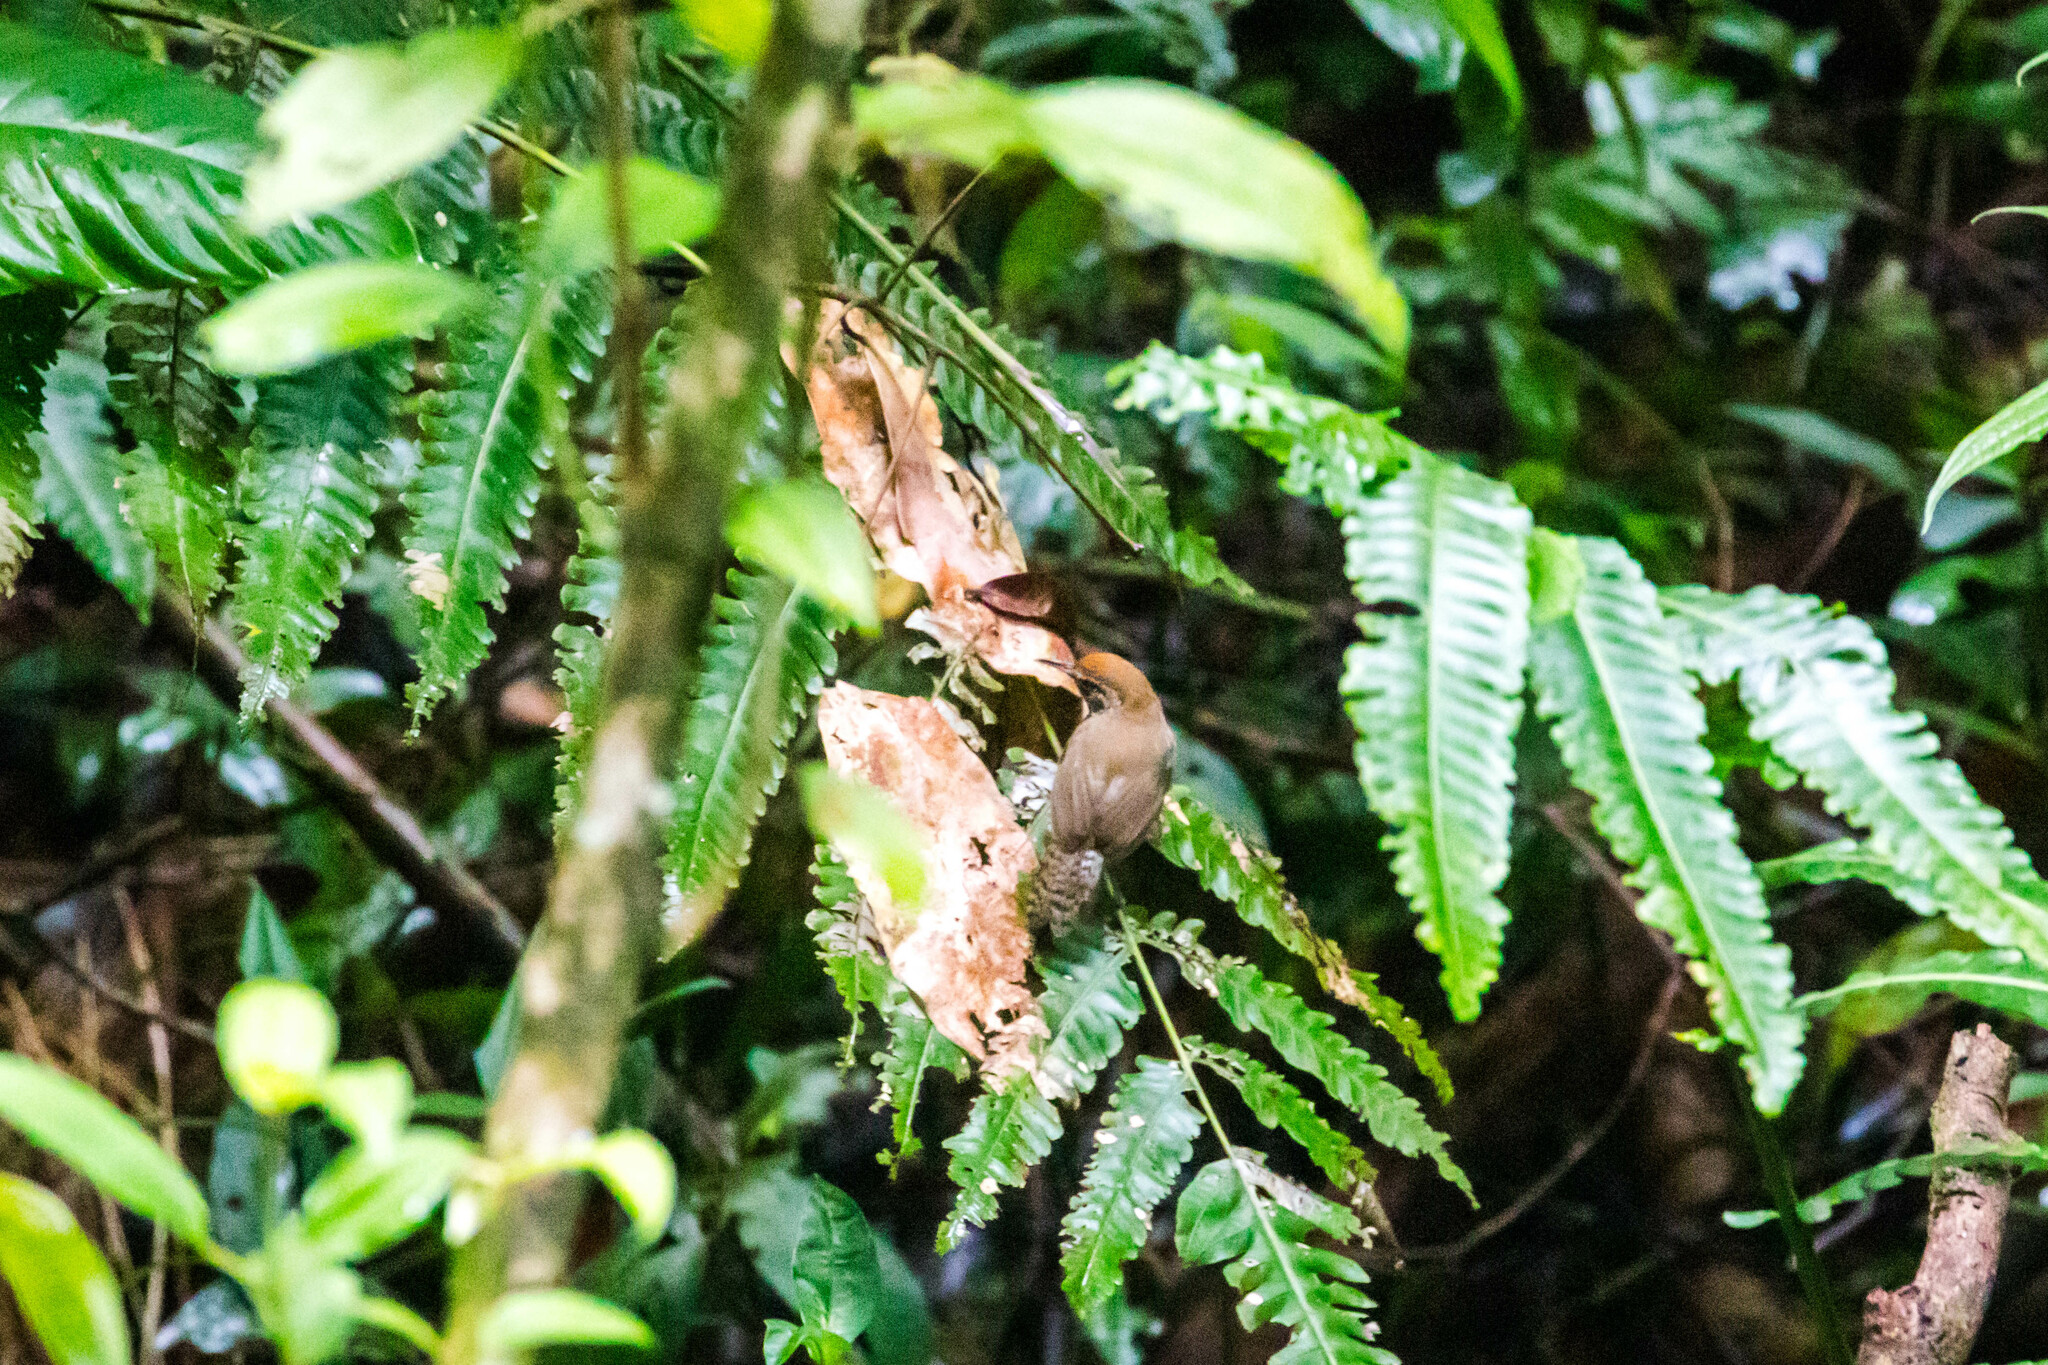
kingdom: Animalia
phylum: Chordata
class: Aves
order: Passeriformes
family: Troglodytidae
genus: Pheugopedius
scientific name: Pheugopedius rutilus
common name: Rufous-breasted wren
